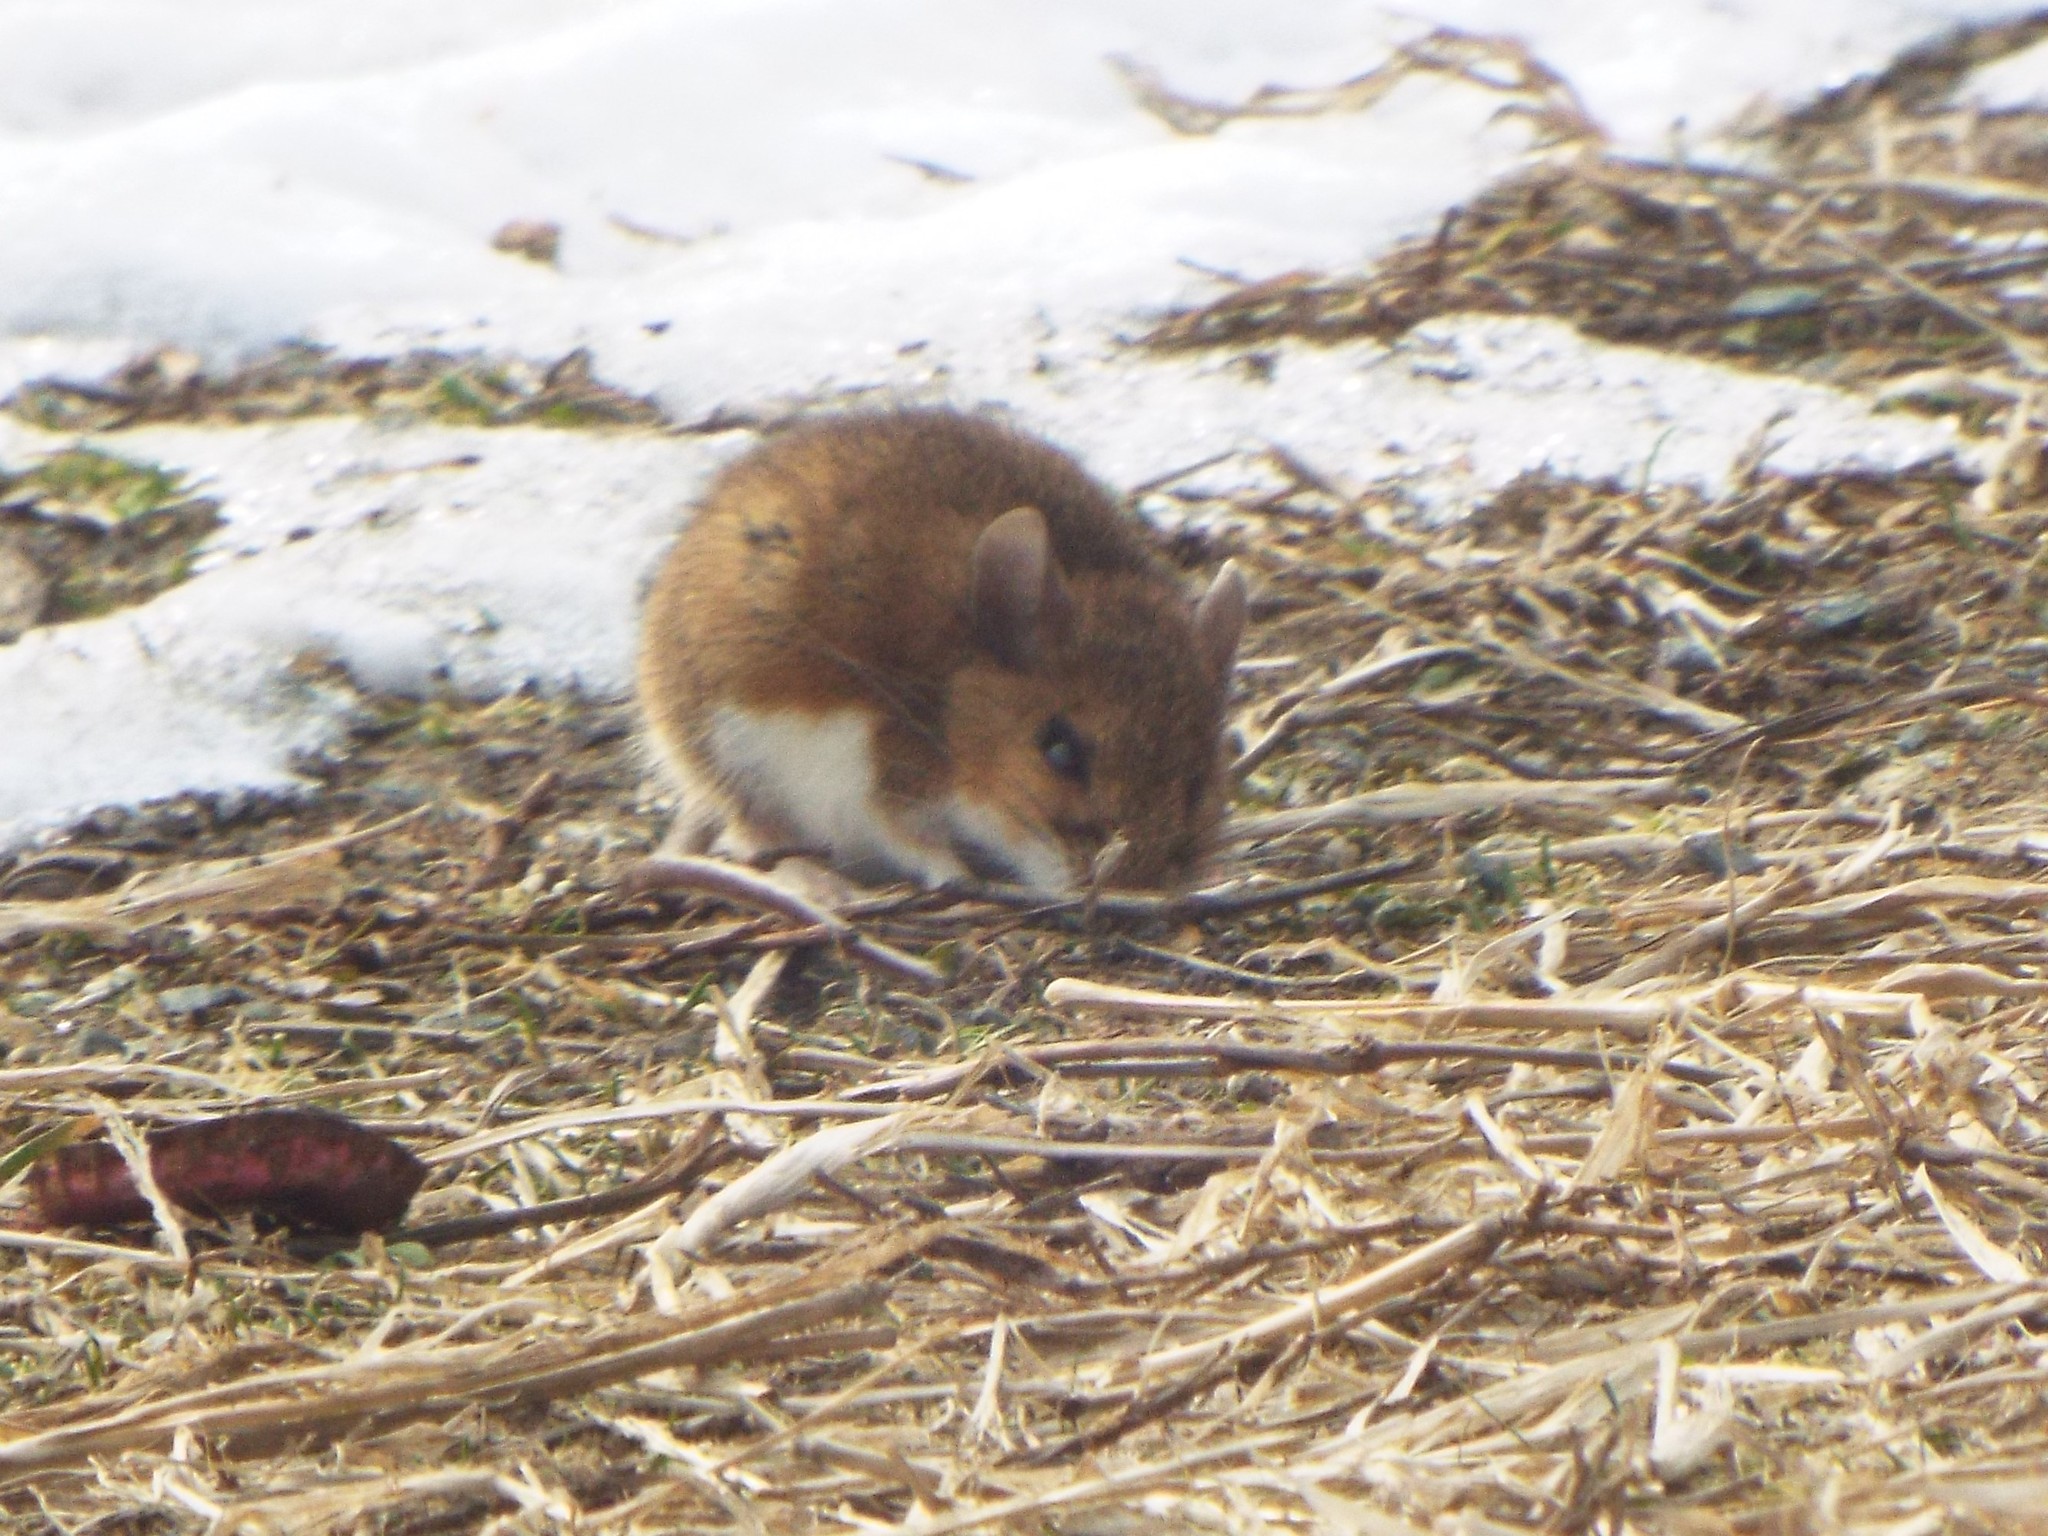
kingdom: Animalia
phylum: Chordata
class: Mammalia
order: Rodentia
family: Cricetidae
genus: Peromyscus
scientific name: Peromyscus leucopus
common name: White-footed deermouse
